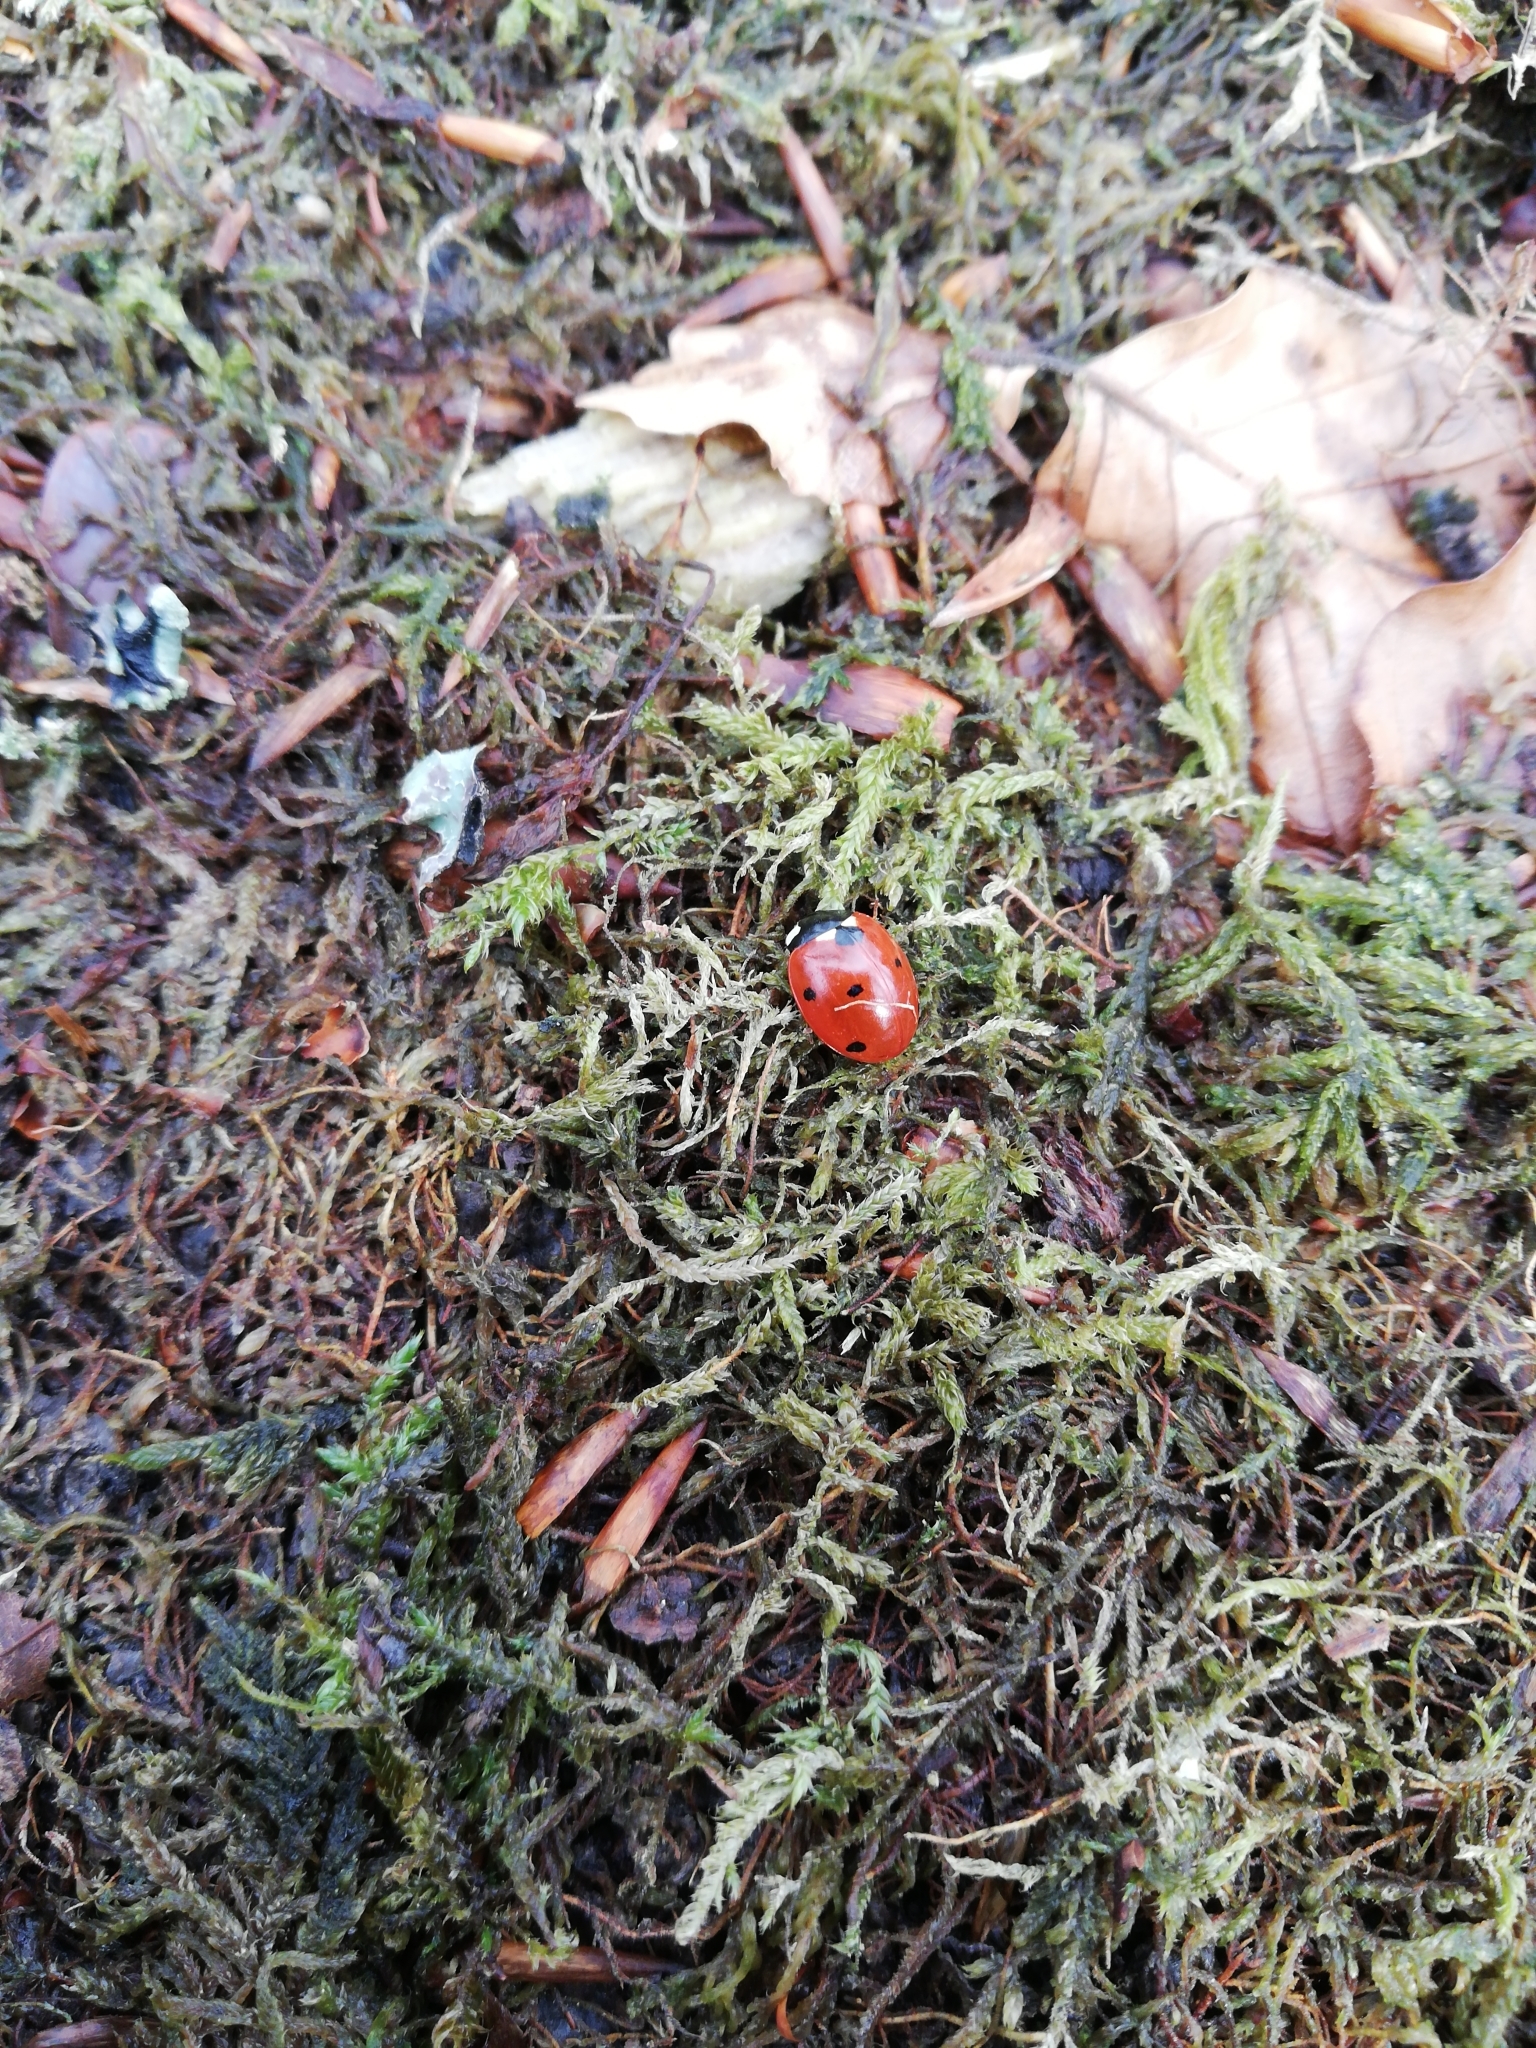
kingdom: Animalia
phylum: Arthropoda
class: Insecta
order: Coleoptera
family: Coccinellidae
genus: Coccinella
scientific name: Coccinella septempunctata
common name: Sevenspotted lady beetle
